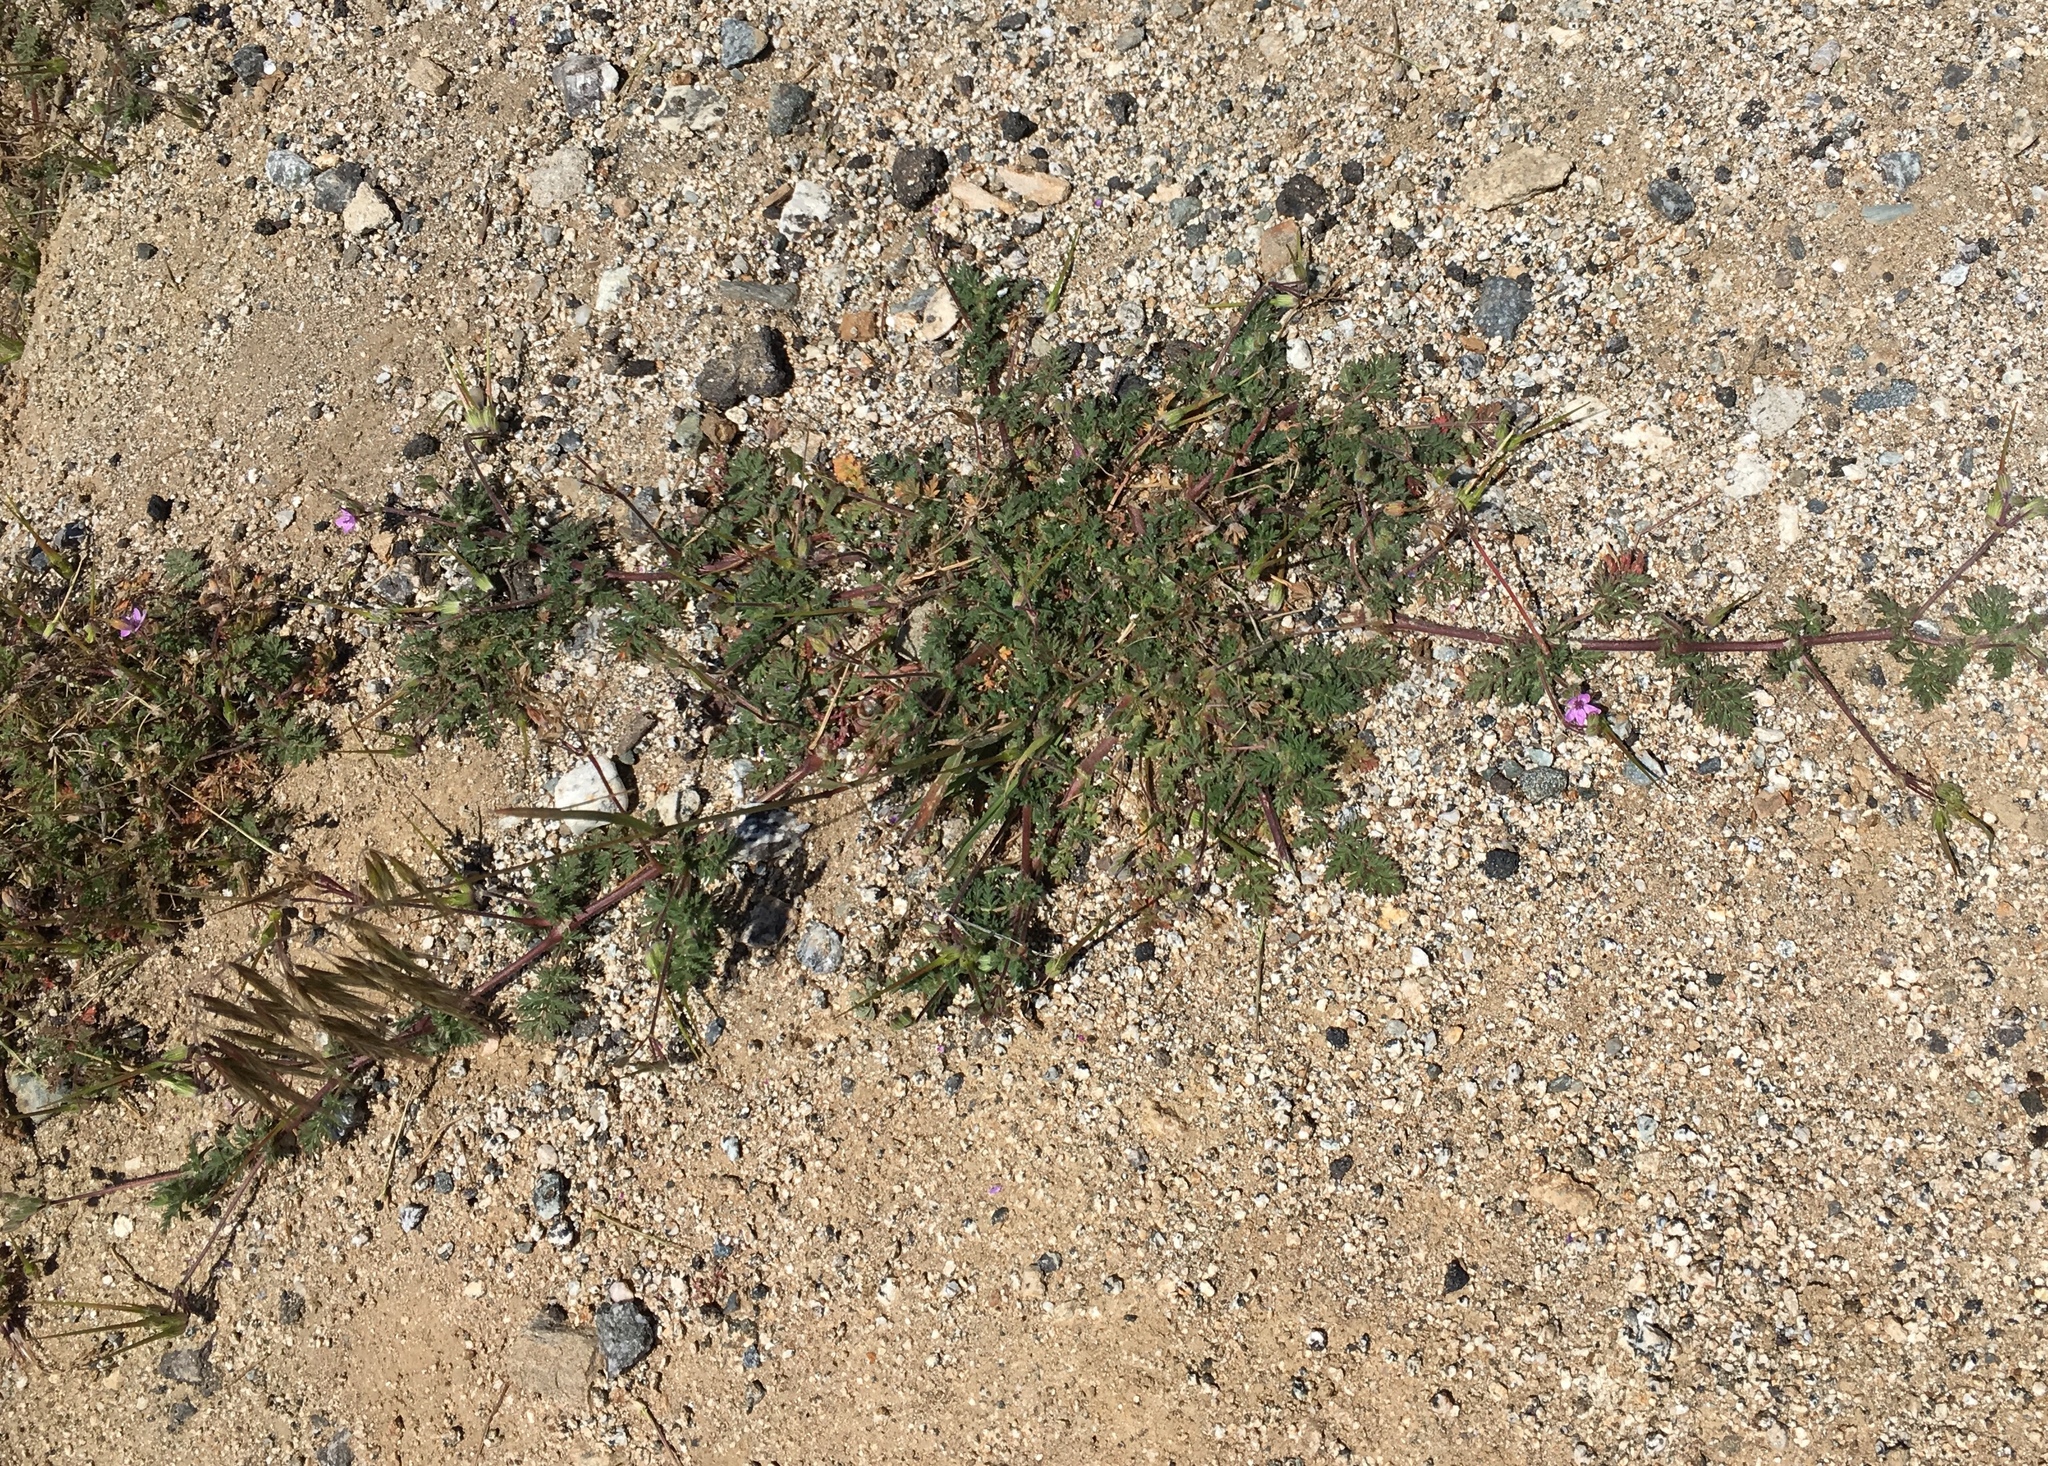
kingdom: Plantae
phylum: Tracheophyta
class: Magnoliopsida
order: Geraniales
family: Geraniaceae
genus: Erodium
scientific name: Erodium cicutarium
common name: Common stork's-bill
